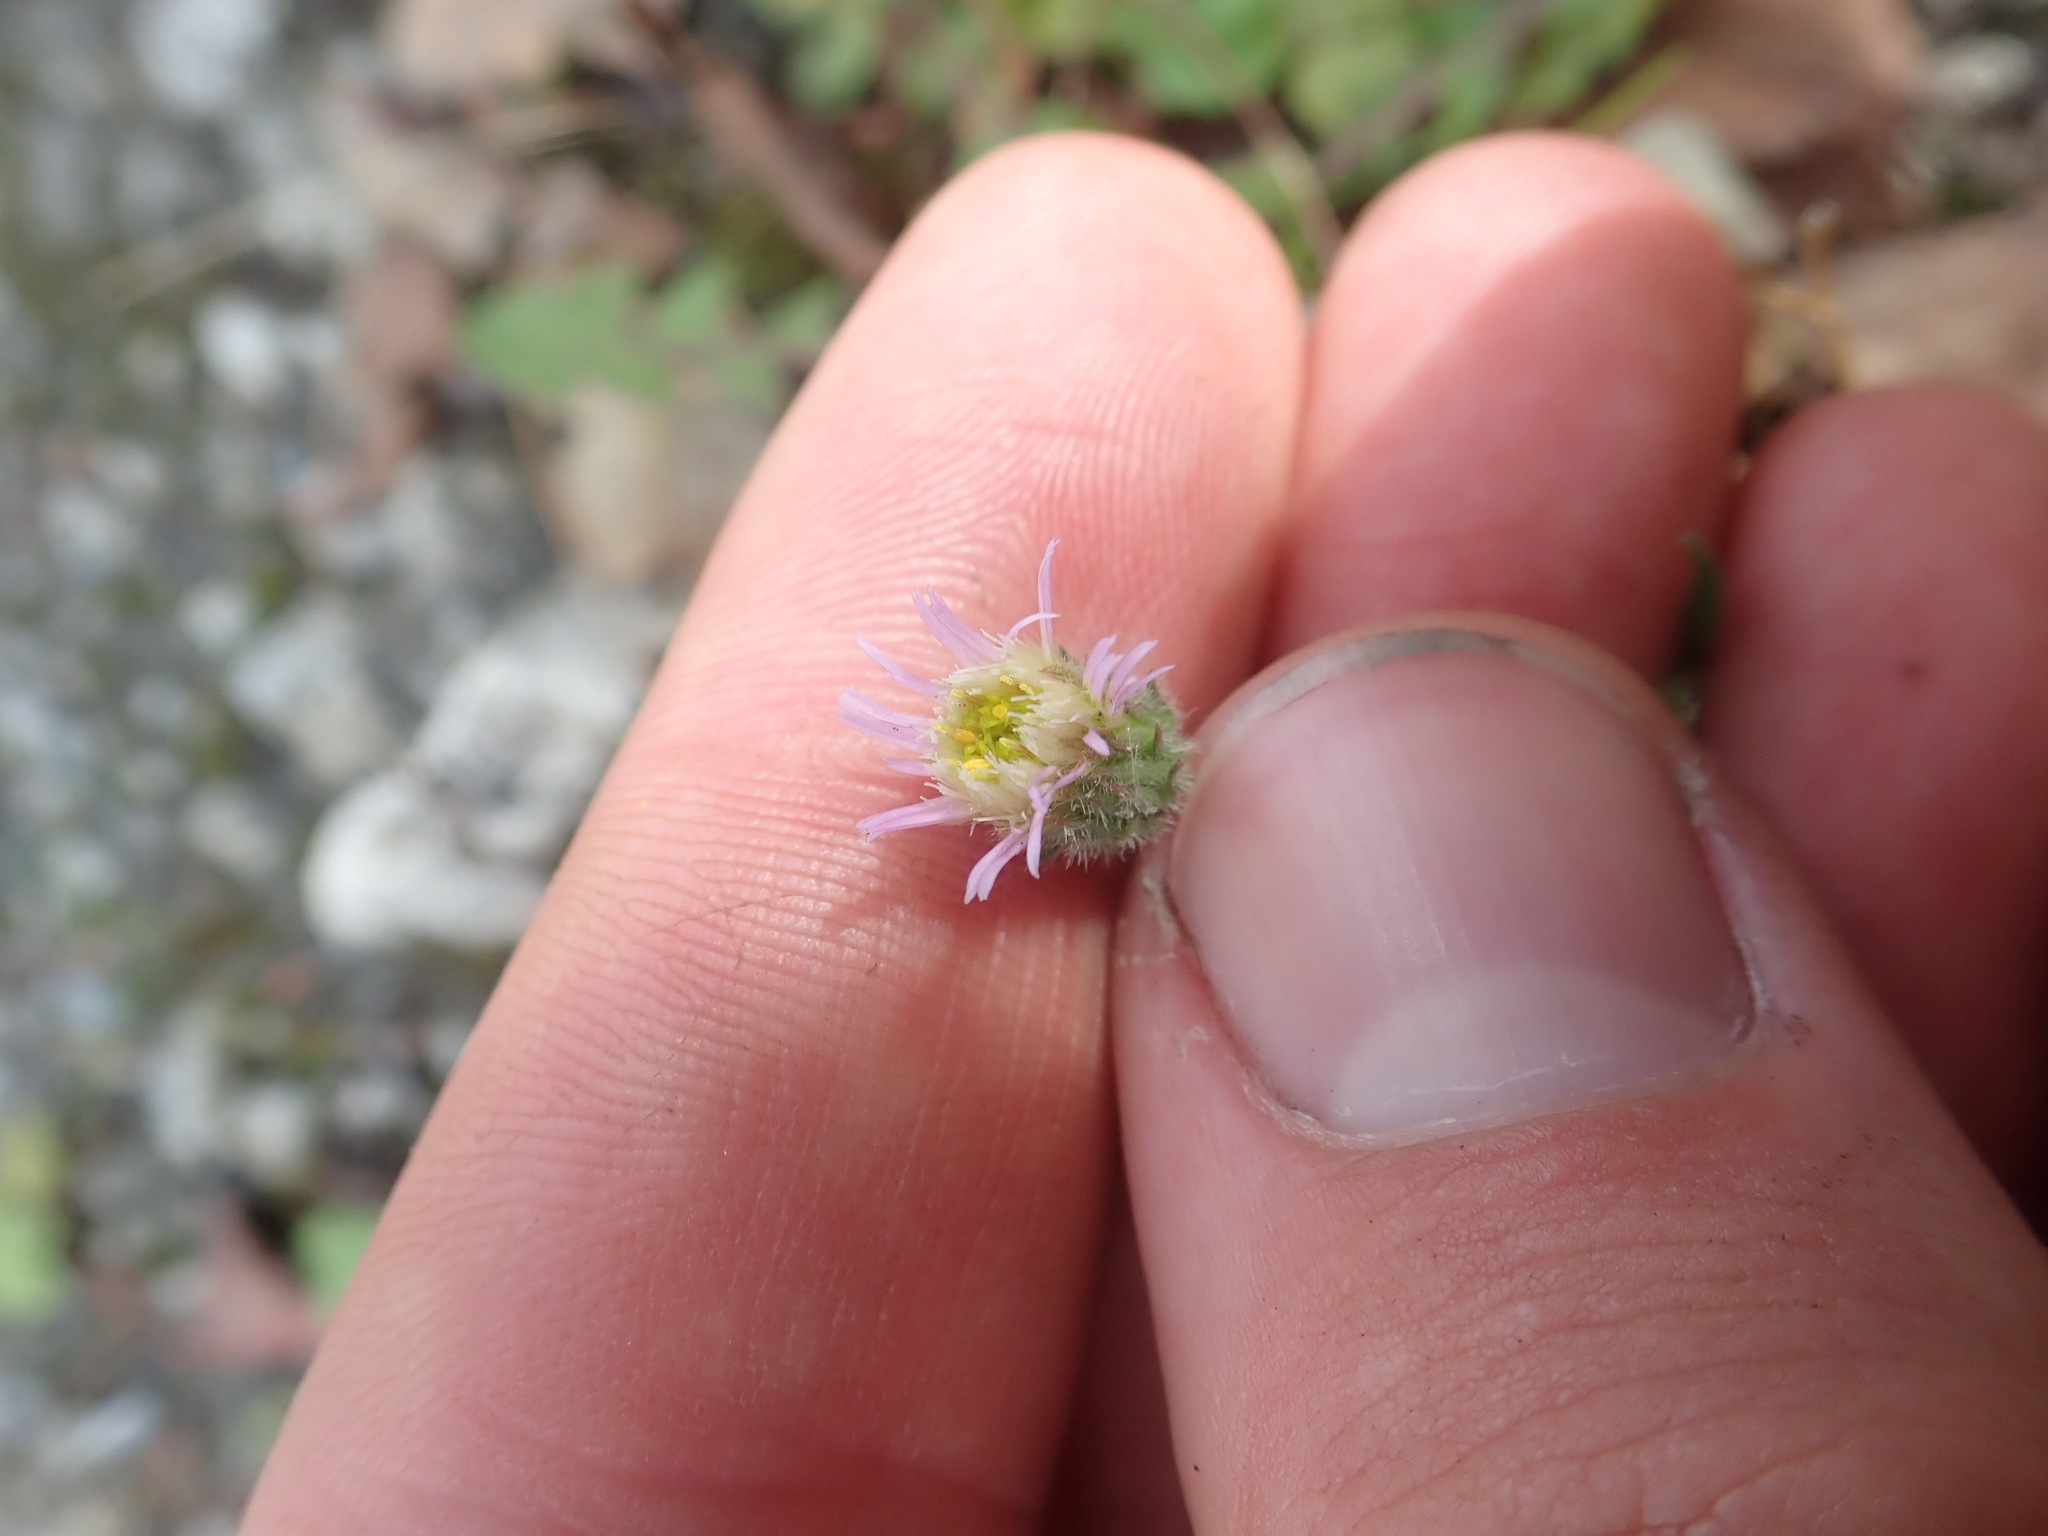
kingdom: Plantae
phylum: Tracheophyta
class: Magnoliopsida
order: Asterales
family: Asteraceae
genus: Erigeron
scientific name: Erigeron acris
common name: Blue fleabane
